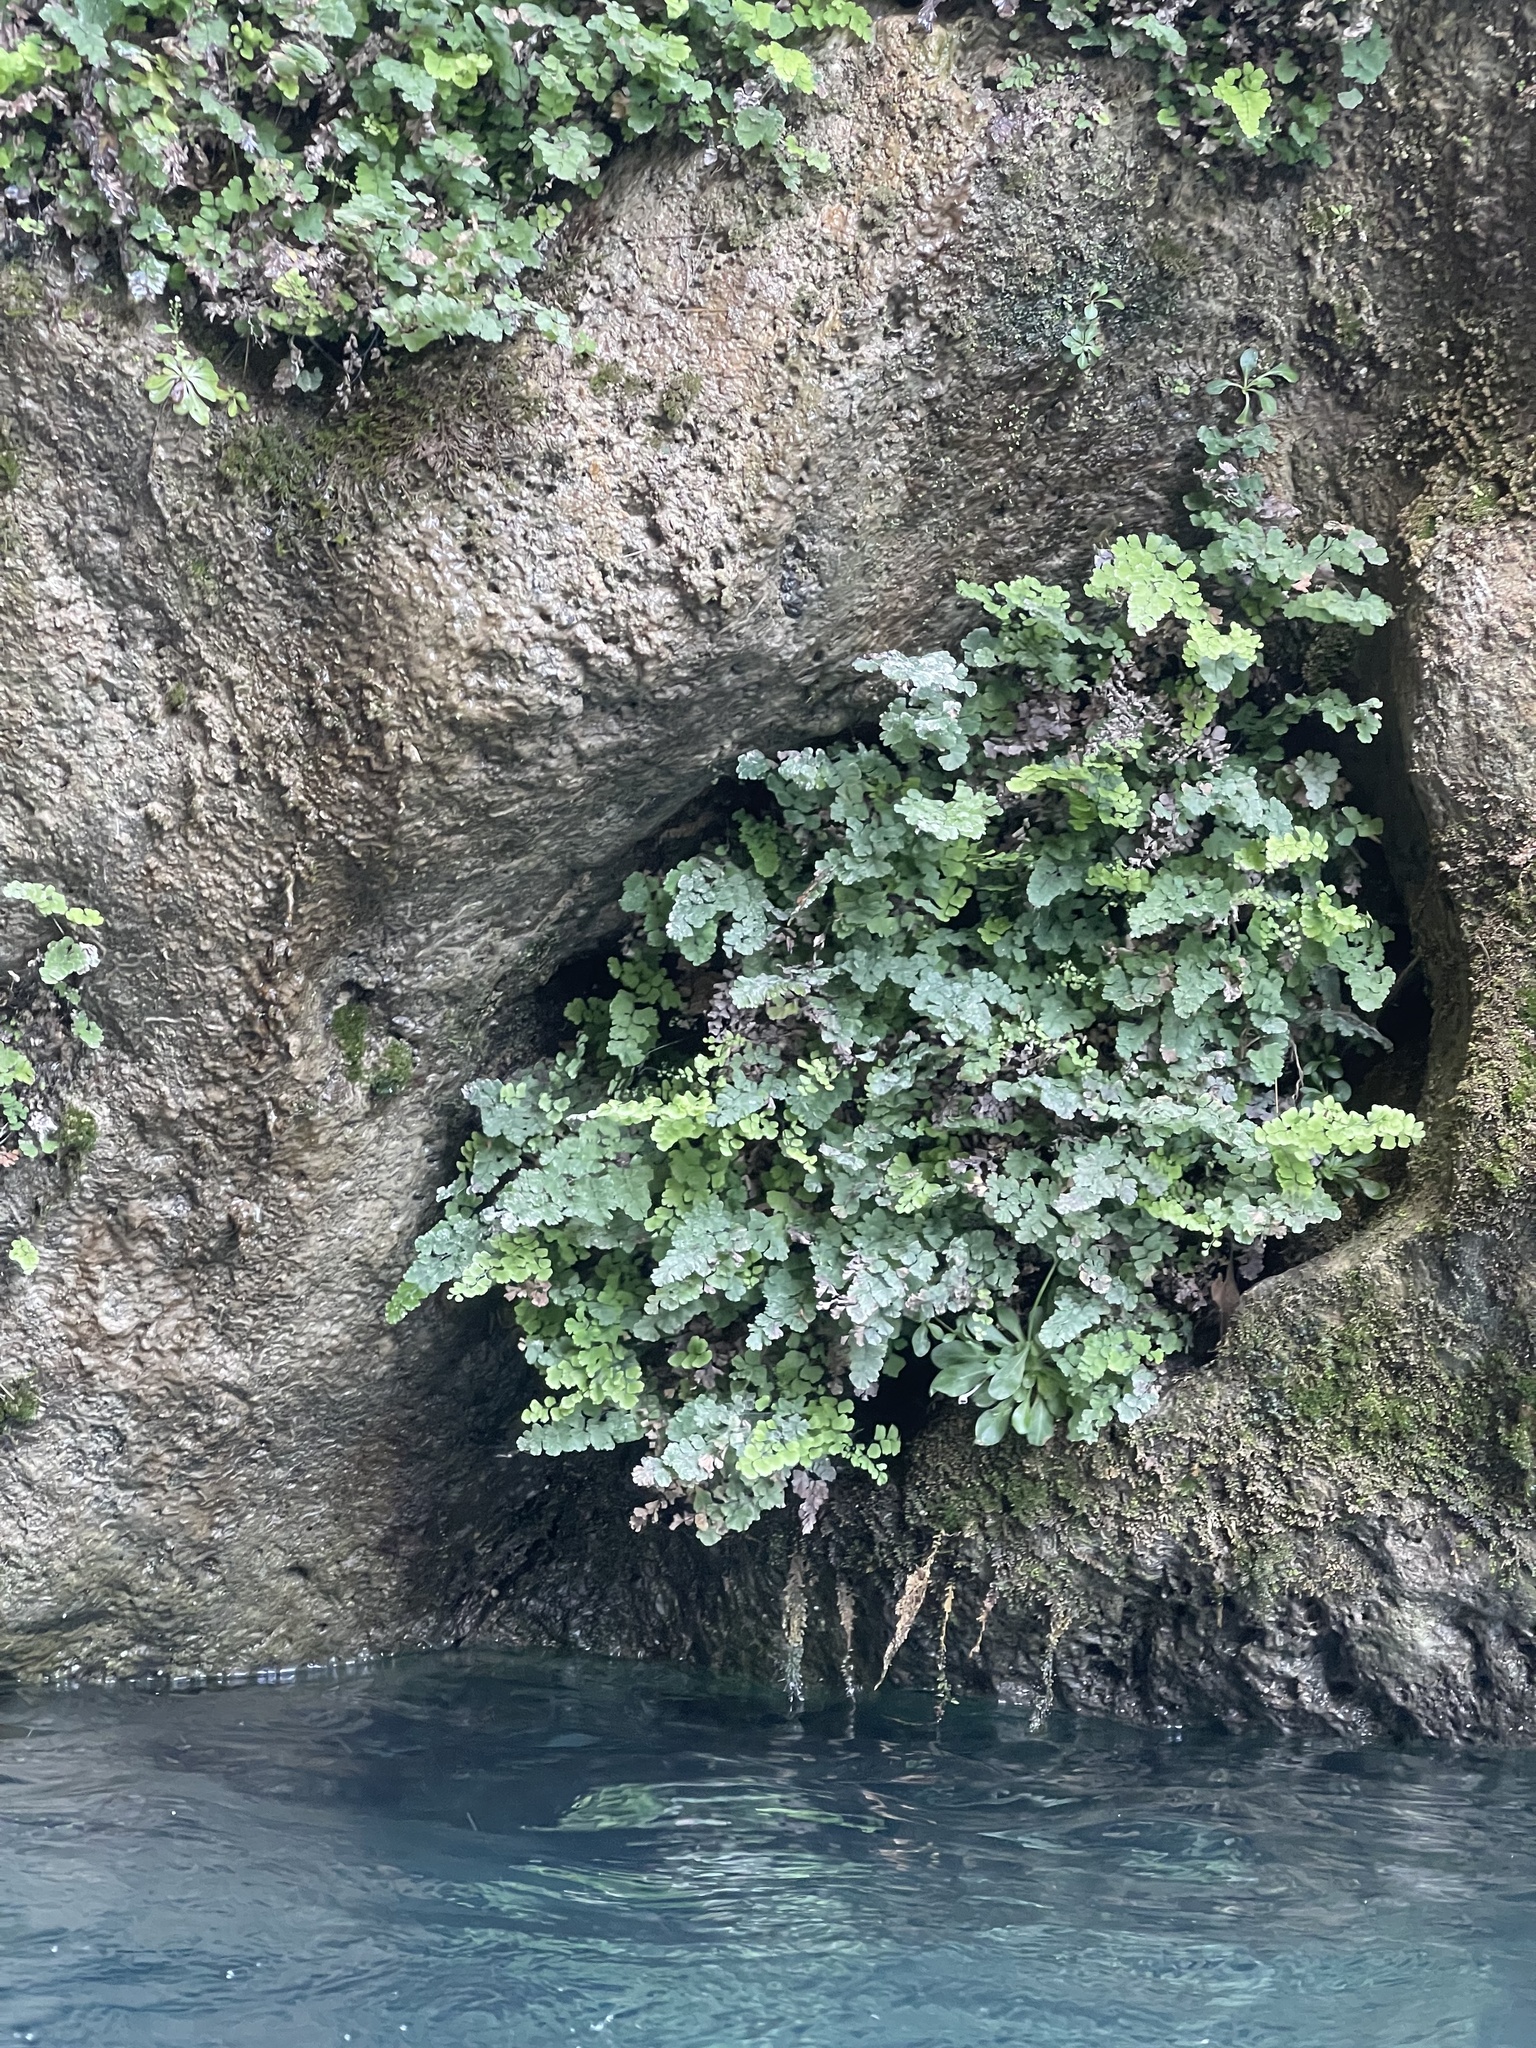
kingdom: Plantae
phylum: Tracheophyta
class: Polypodiopsida
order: Polypodiales
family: Pteridaceae
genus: Adiantum
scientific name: Adiantum capillus-veneris
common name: Maidenhair fern
